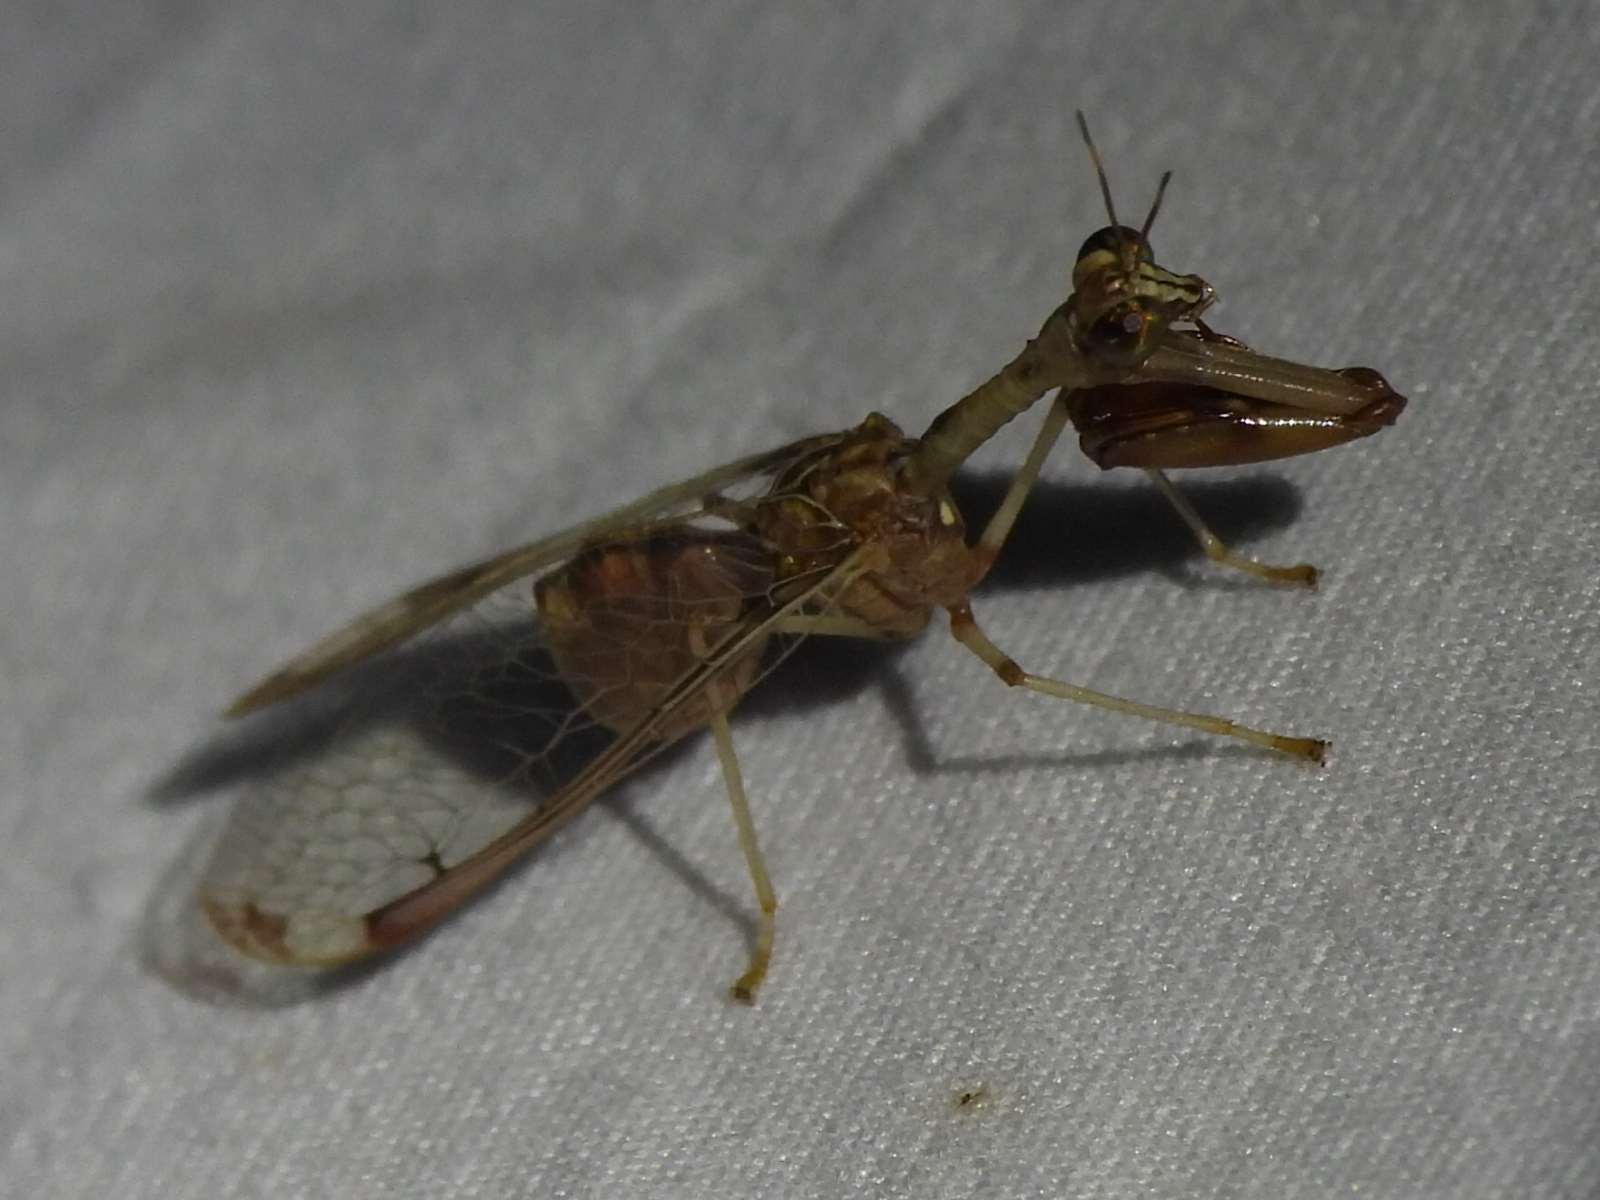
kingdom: Animalia
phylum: Arthropoda
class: Insecta
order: Neuroptera
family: Mantispidae
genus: Dicromantispa
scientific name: Dicromantispa interrupta
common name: Four-spotted mantidfly
